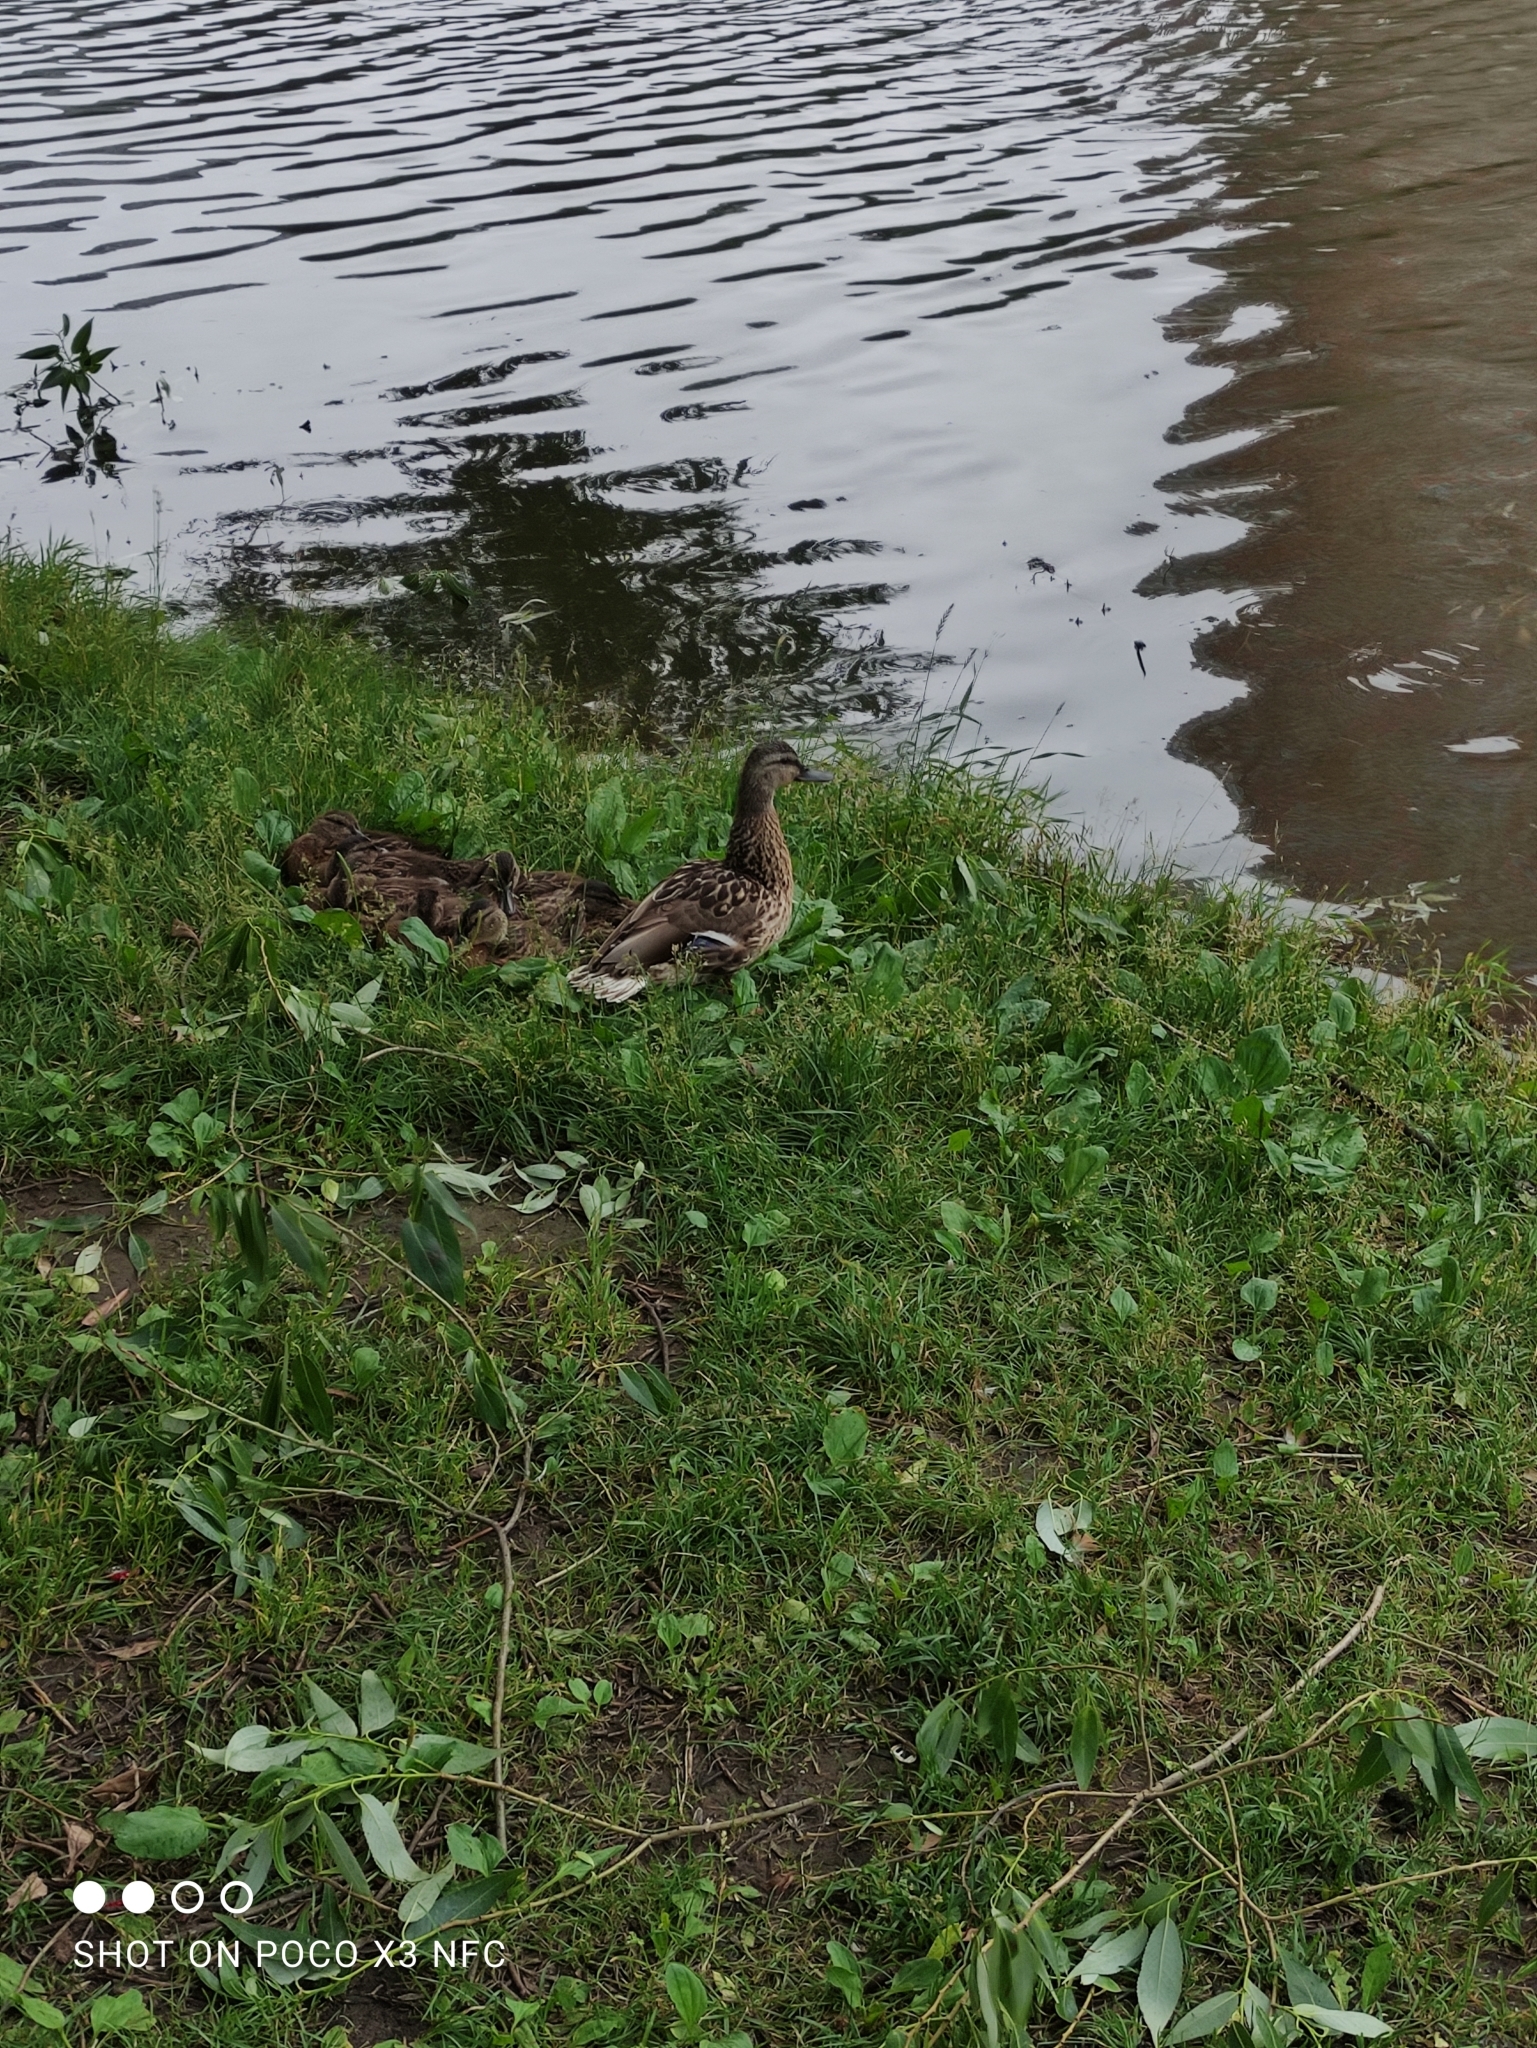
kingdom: Animalia
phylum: Chordata
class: Aves
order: Anseriformes
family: Anatidae
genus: Anas
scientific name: Anas platyrhynchos
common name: Mallard
